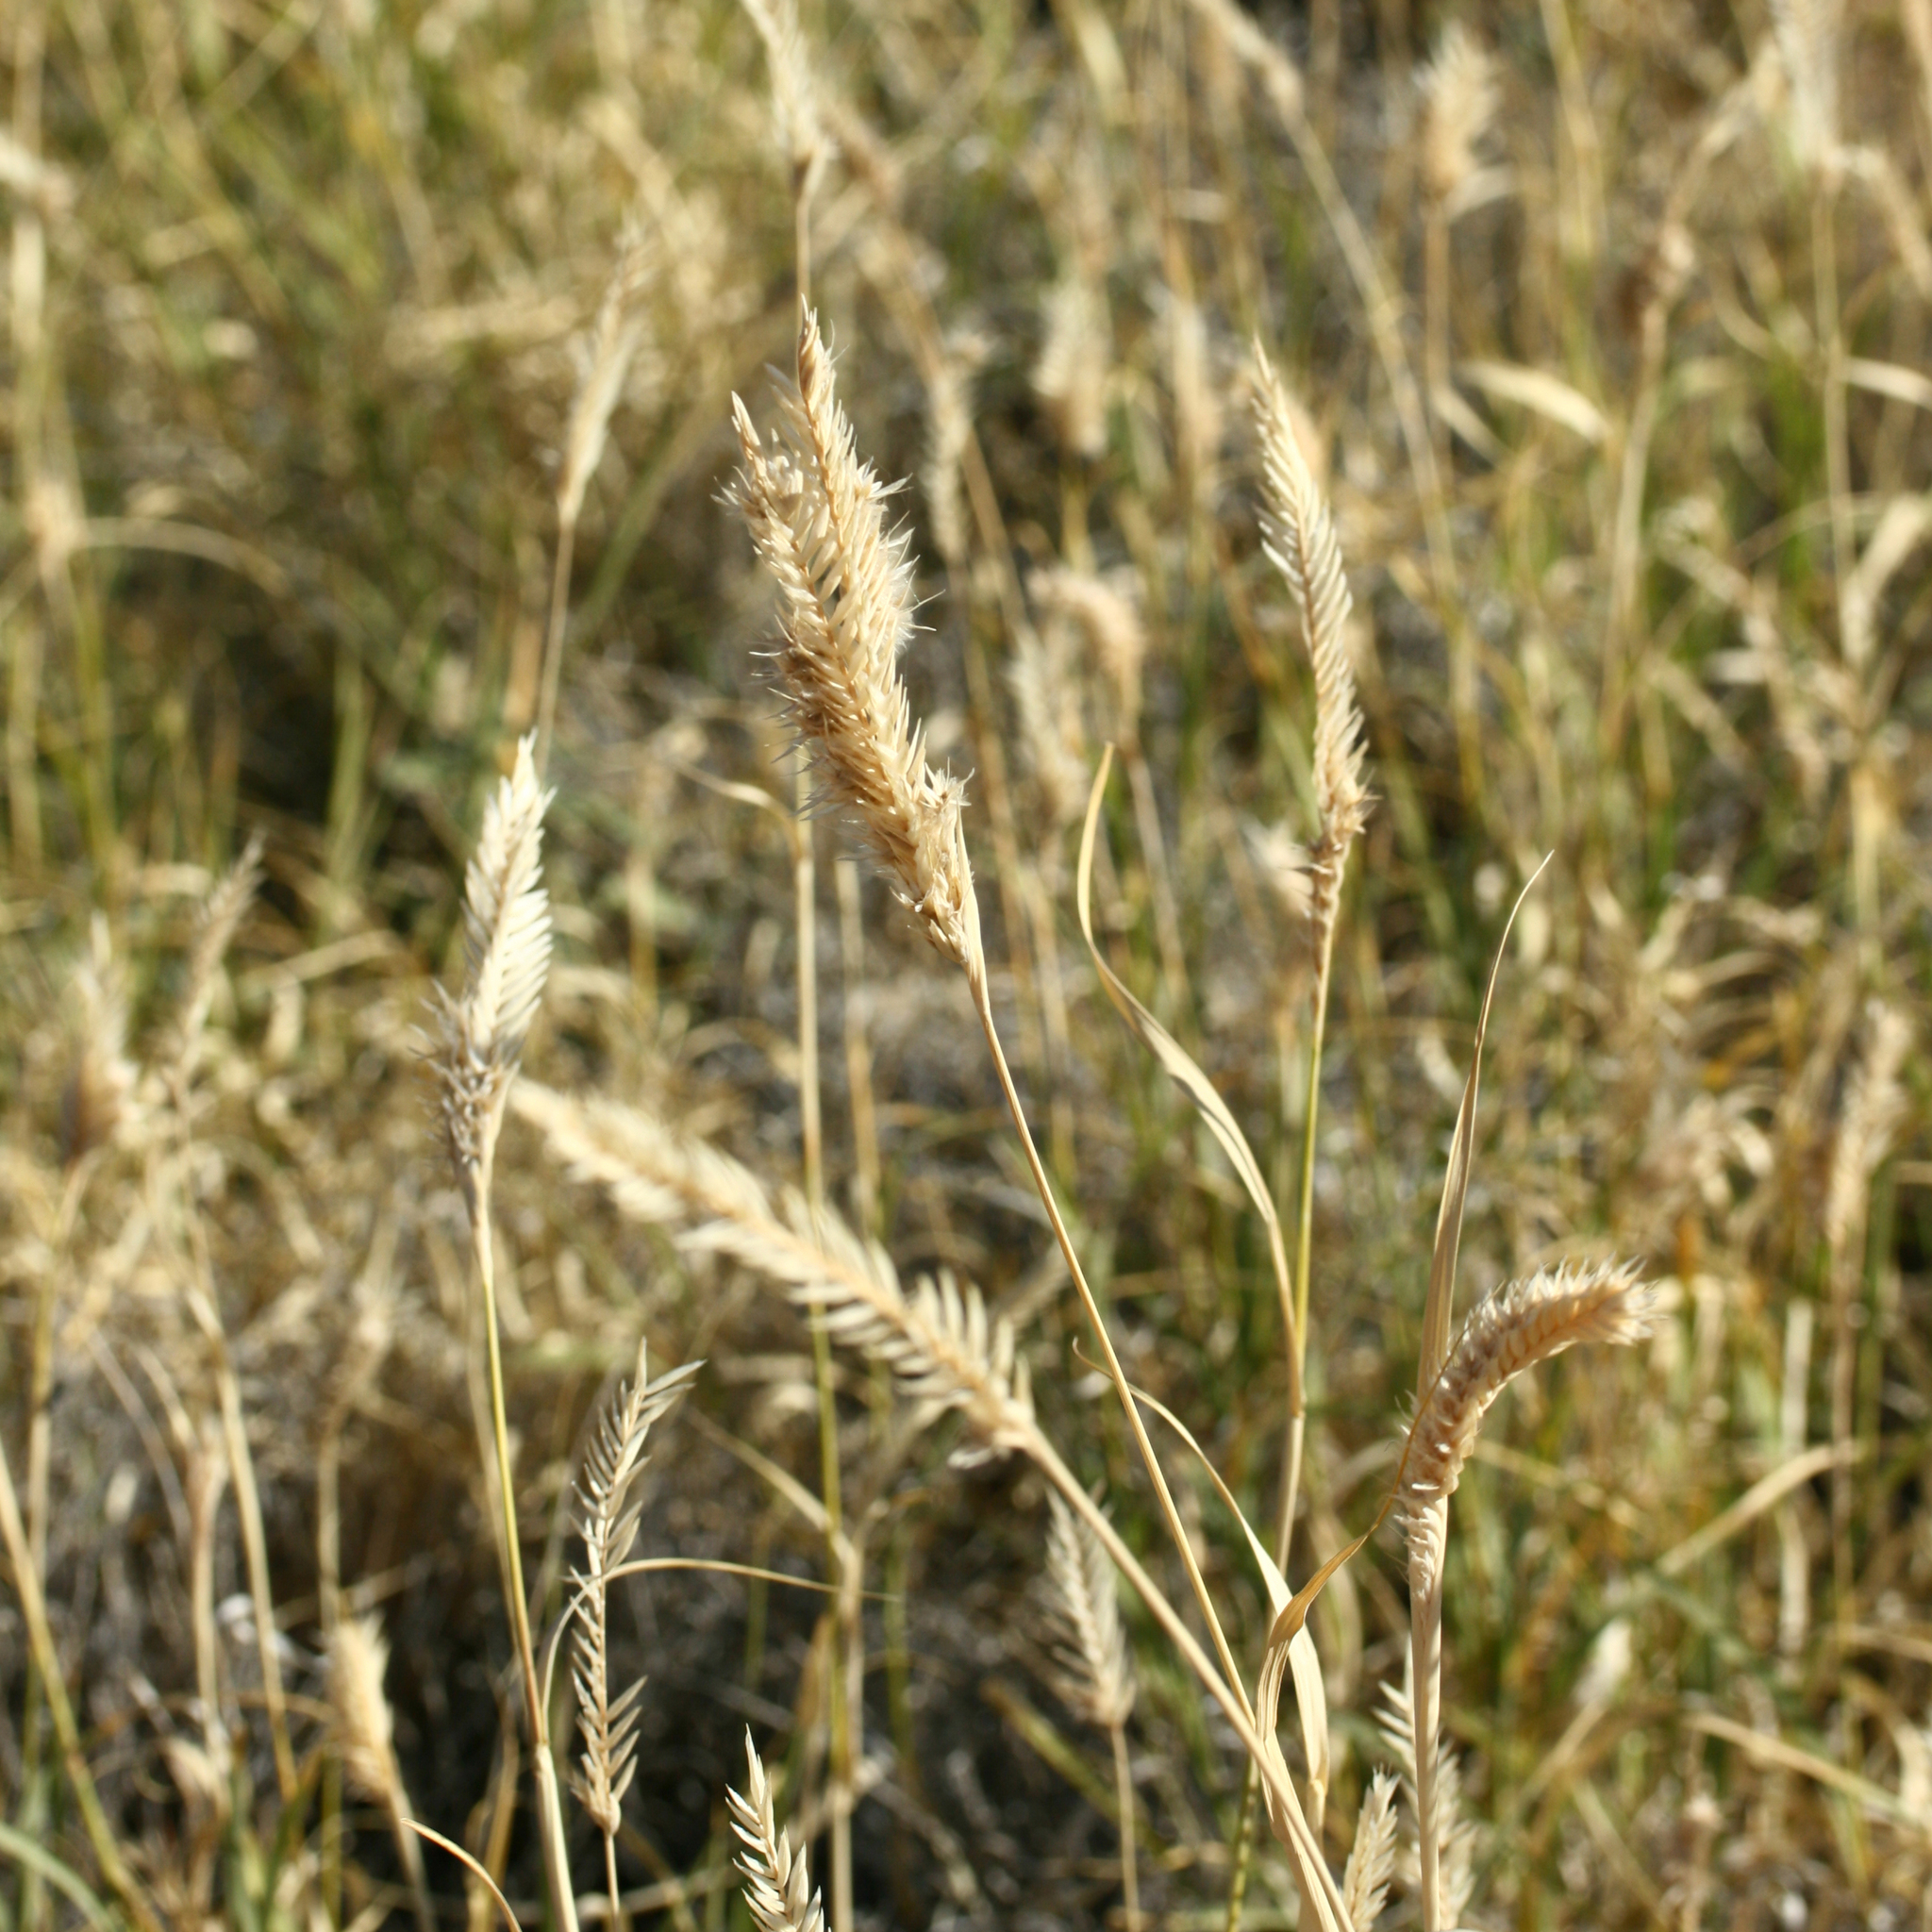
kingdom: Plantae
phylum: Tracheophyta
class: Liliopsida
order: Poales
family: Poaceae
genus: Astrebla
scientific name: Astrebla pectinata
